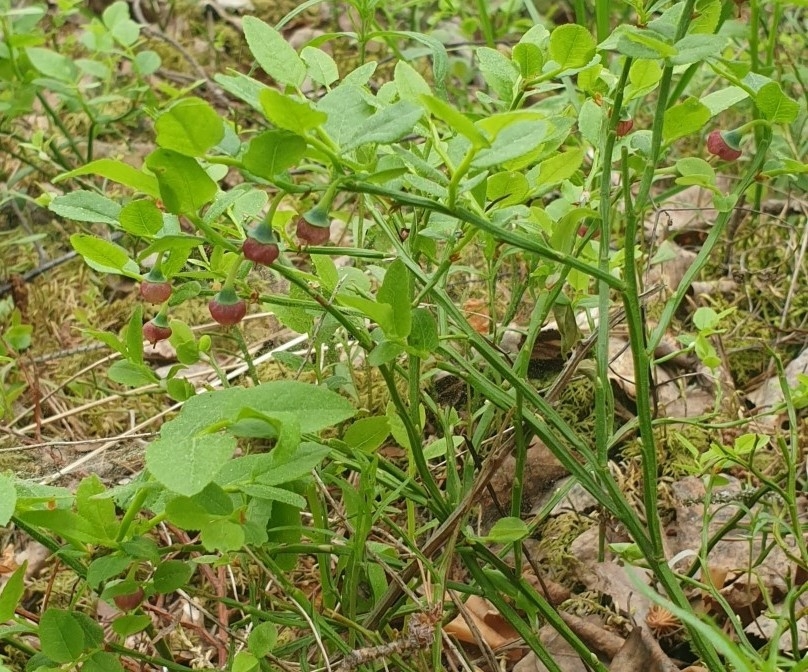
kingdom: Plantae
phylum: Tracheophyta
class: Magnoliopsida
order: Ericales
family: Ericaceae
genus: Vaccinium
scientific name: Vaccinium myrtillus
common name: Bilberry
